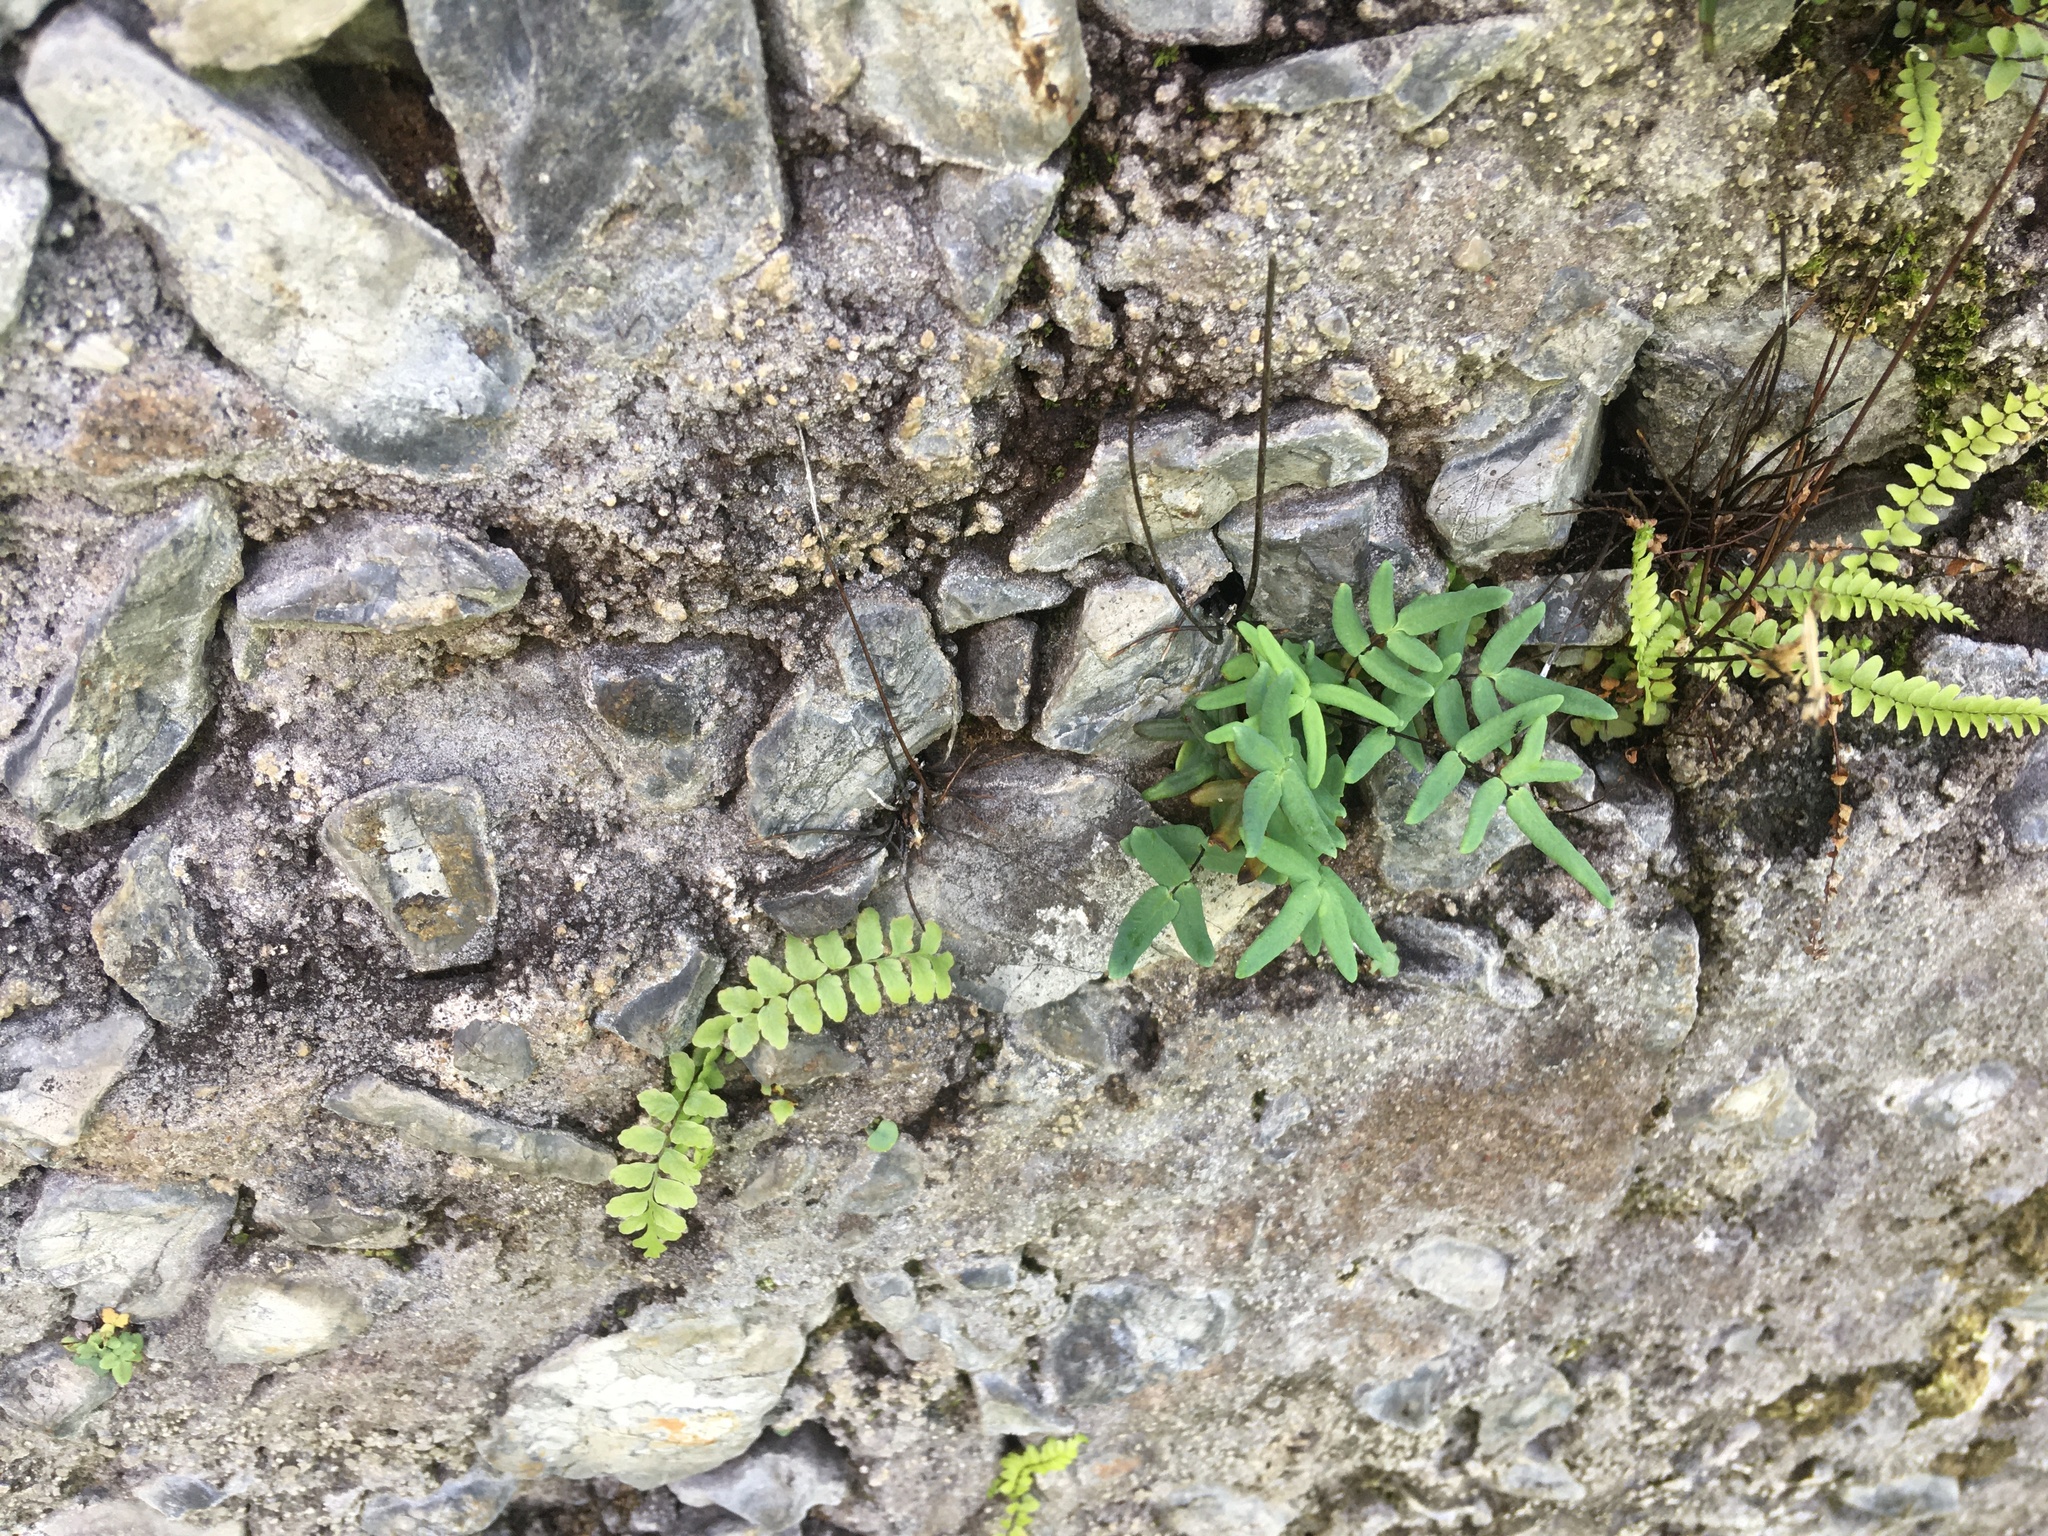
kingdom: Plantae
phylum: Tracheophyta
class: Polypodiopsida
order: Polypodiales
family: Pteridaceae
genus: Pellaea
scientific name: Pellaea glabella
